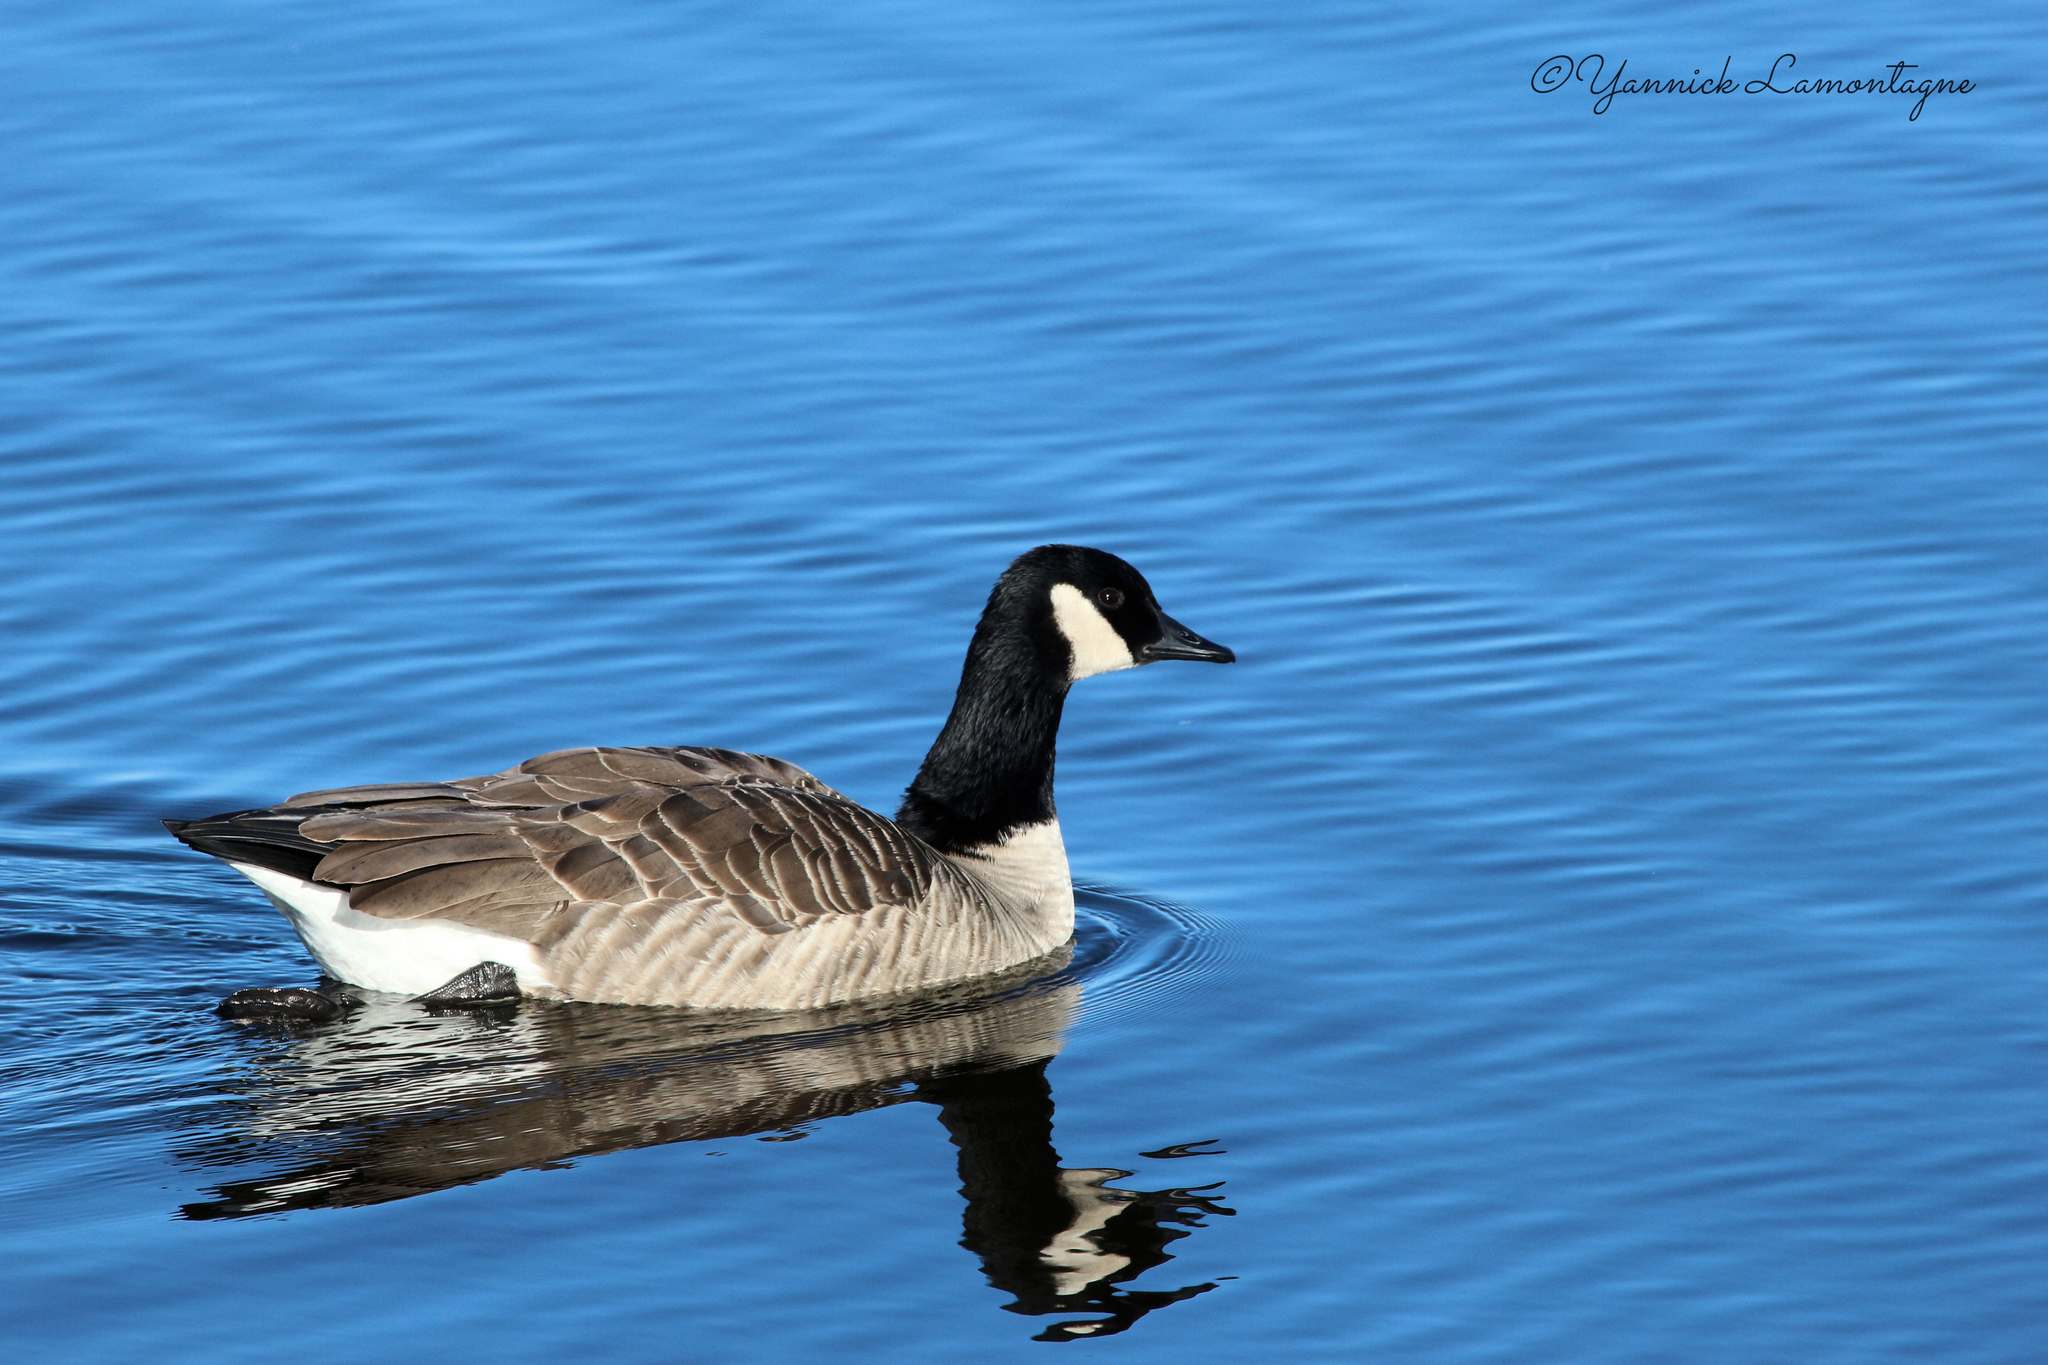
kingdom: Animalia
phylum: Chordata
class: Aves
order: Anseriformes
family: Anatidae
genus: Branta
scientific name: Branta canadensis
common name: Canada goose
